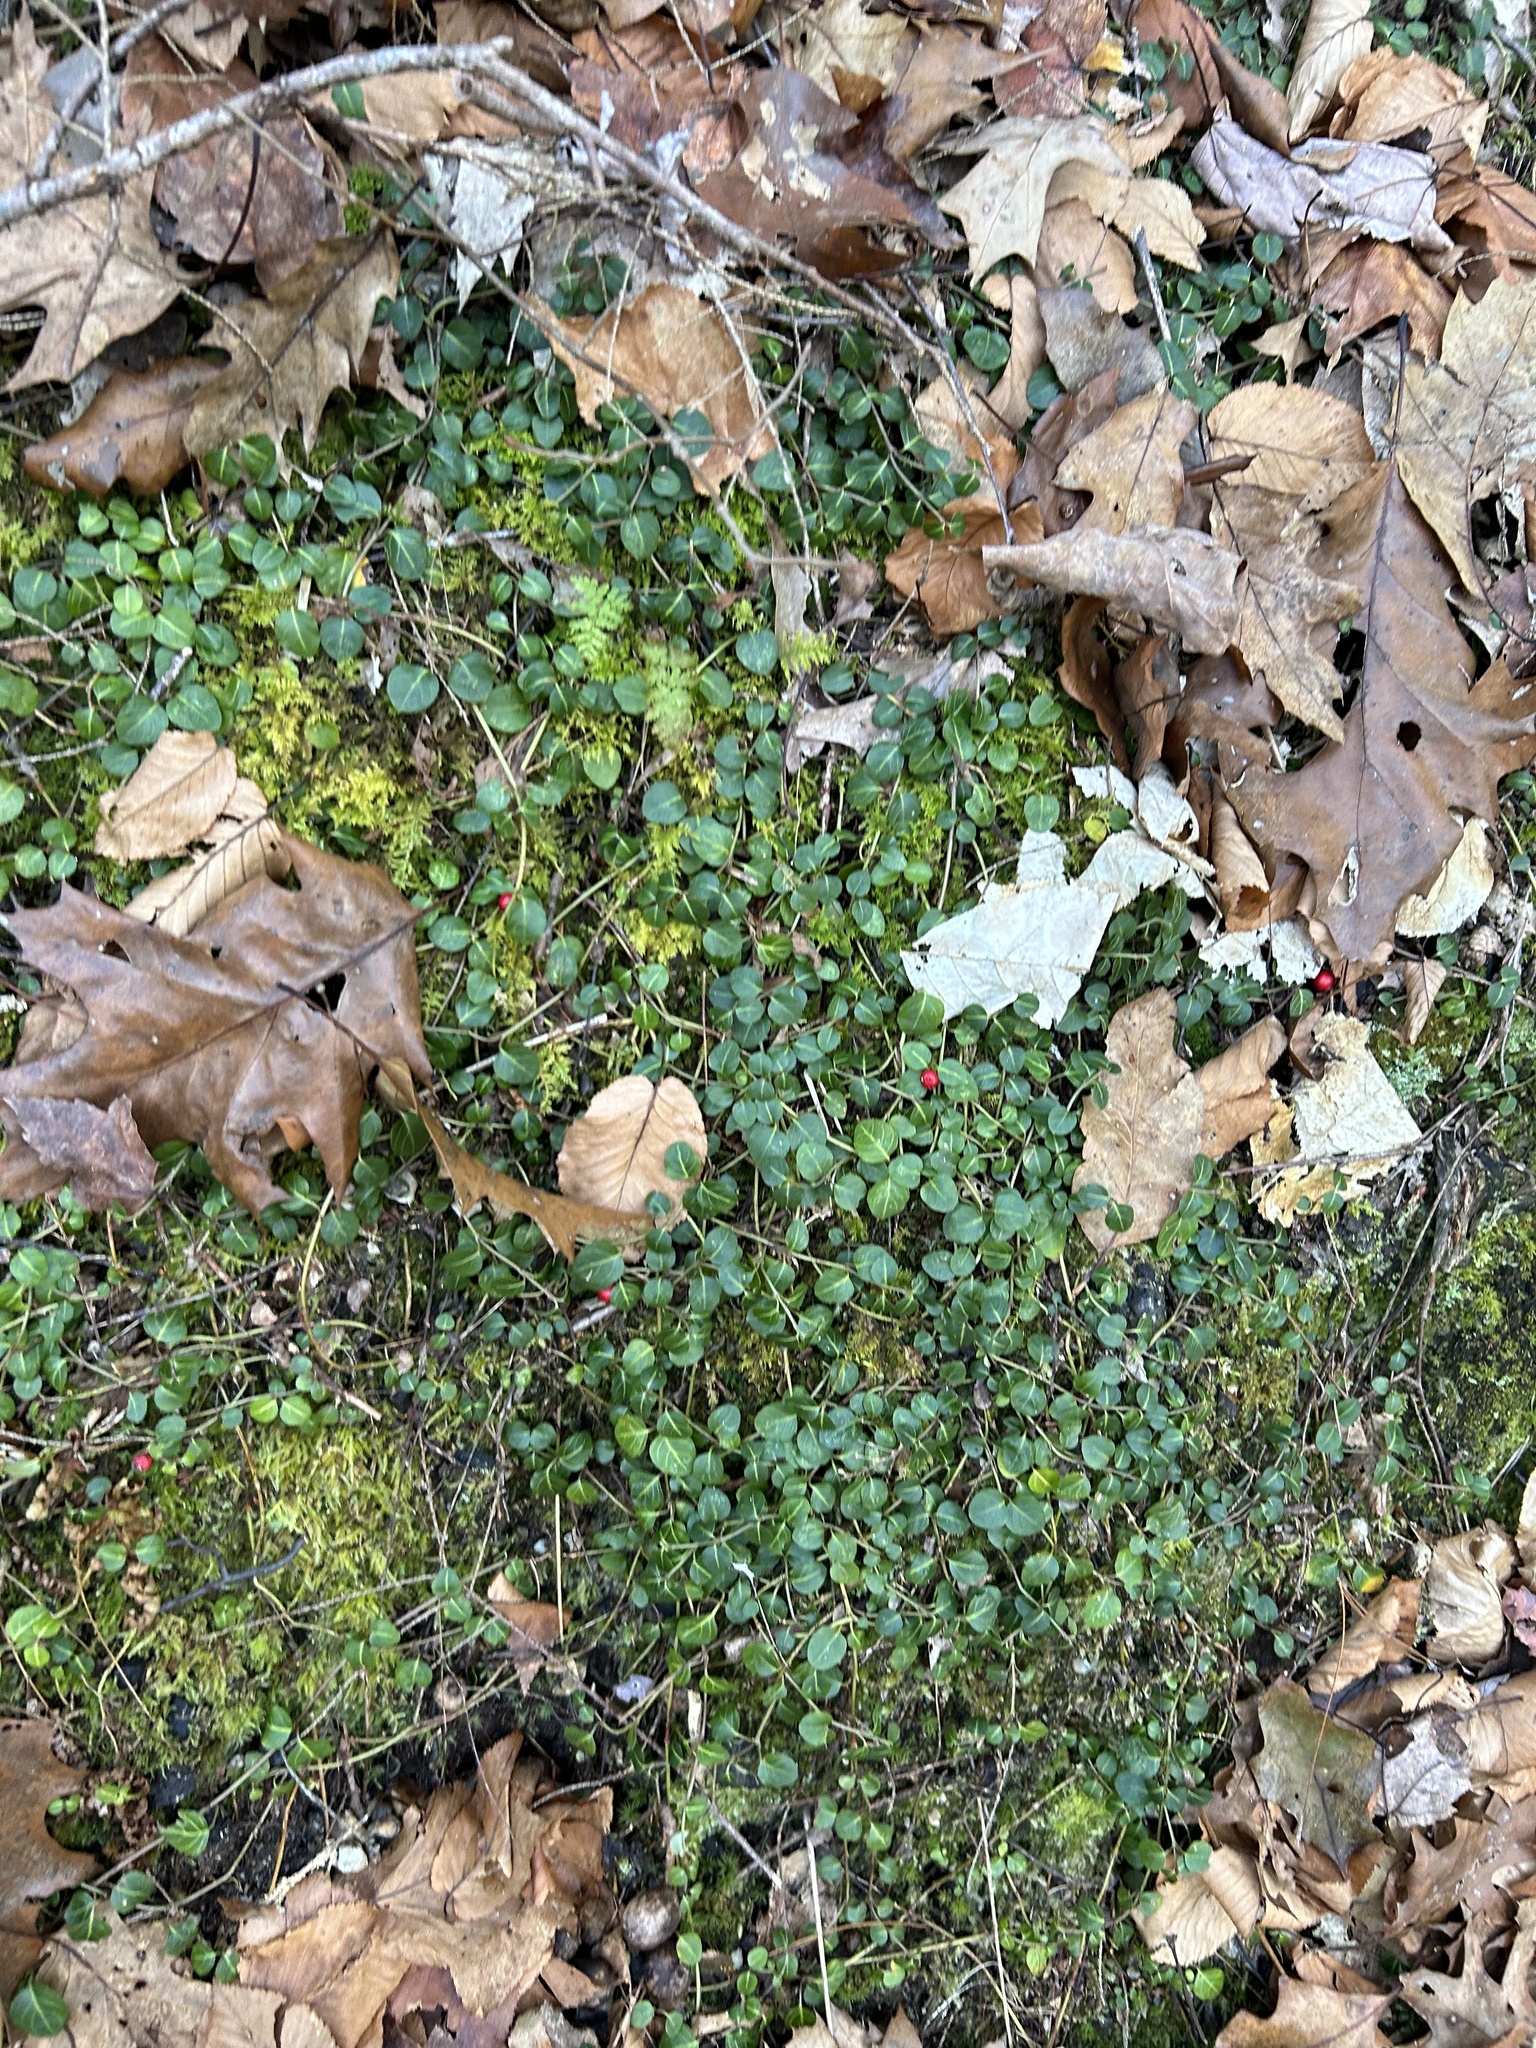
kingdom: Plantae
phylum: Tracheophyta
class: Magnoliopsida
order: Gentianales
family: Rubiaceae
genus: Mitchella
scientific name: Mitchella repens
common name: Partridge-berry
